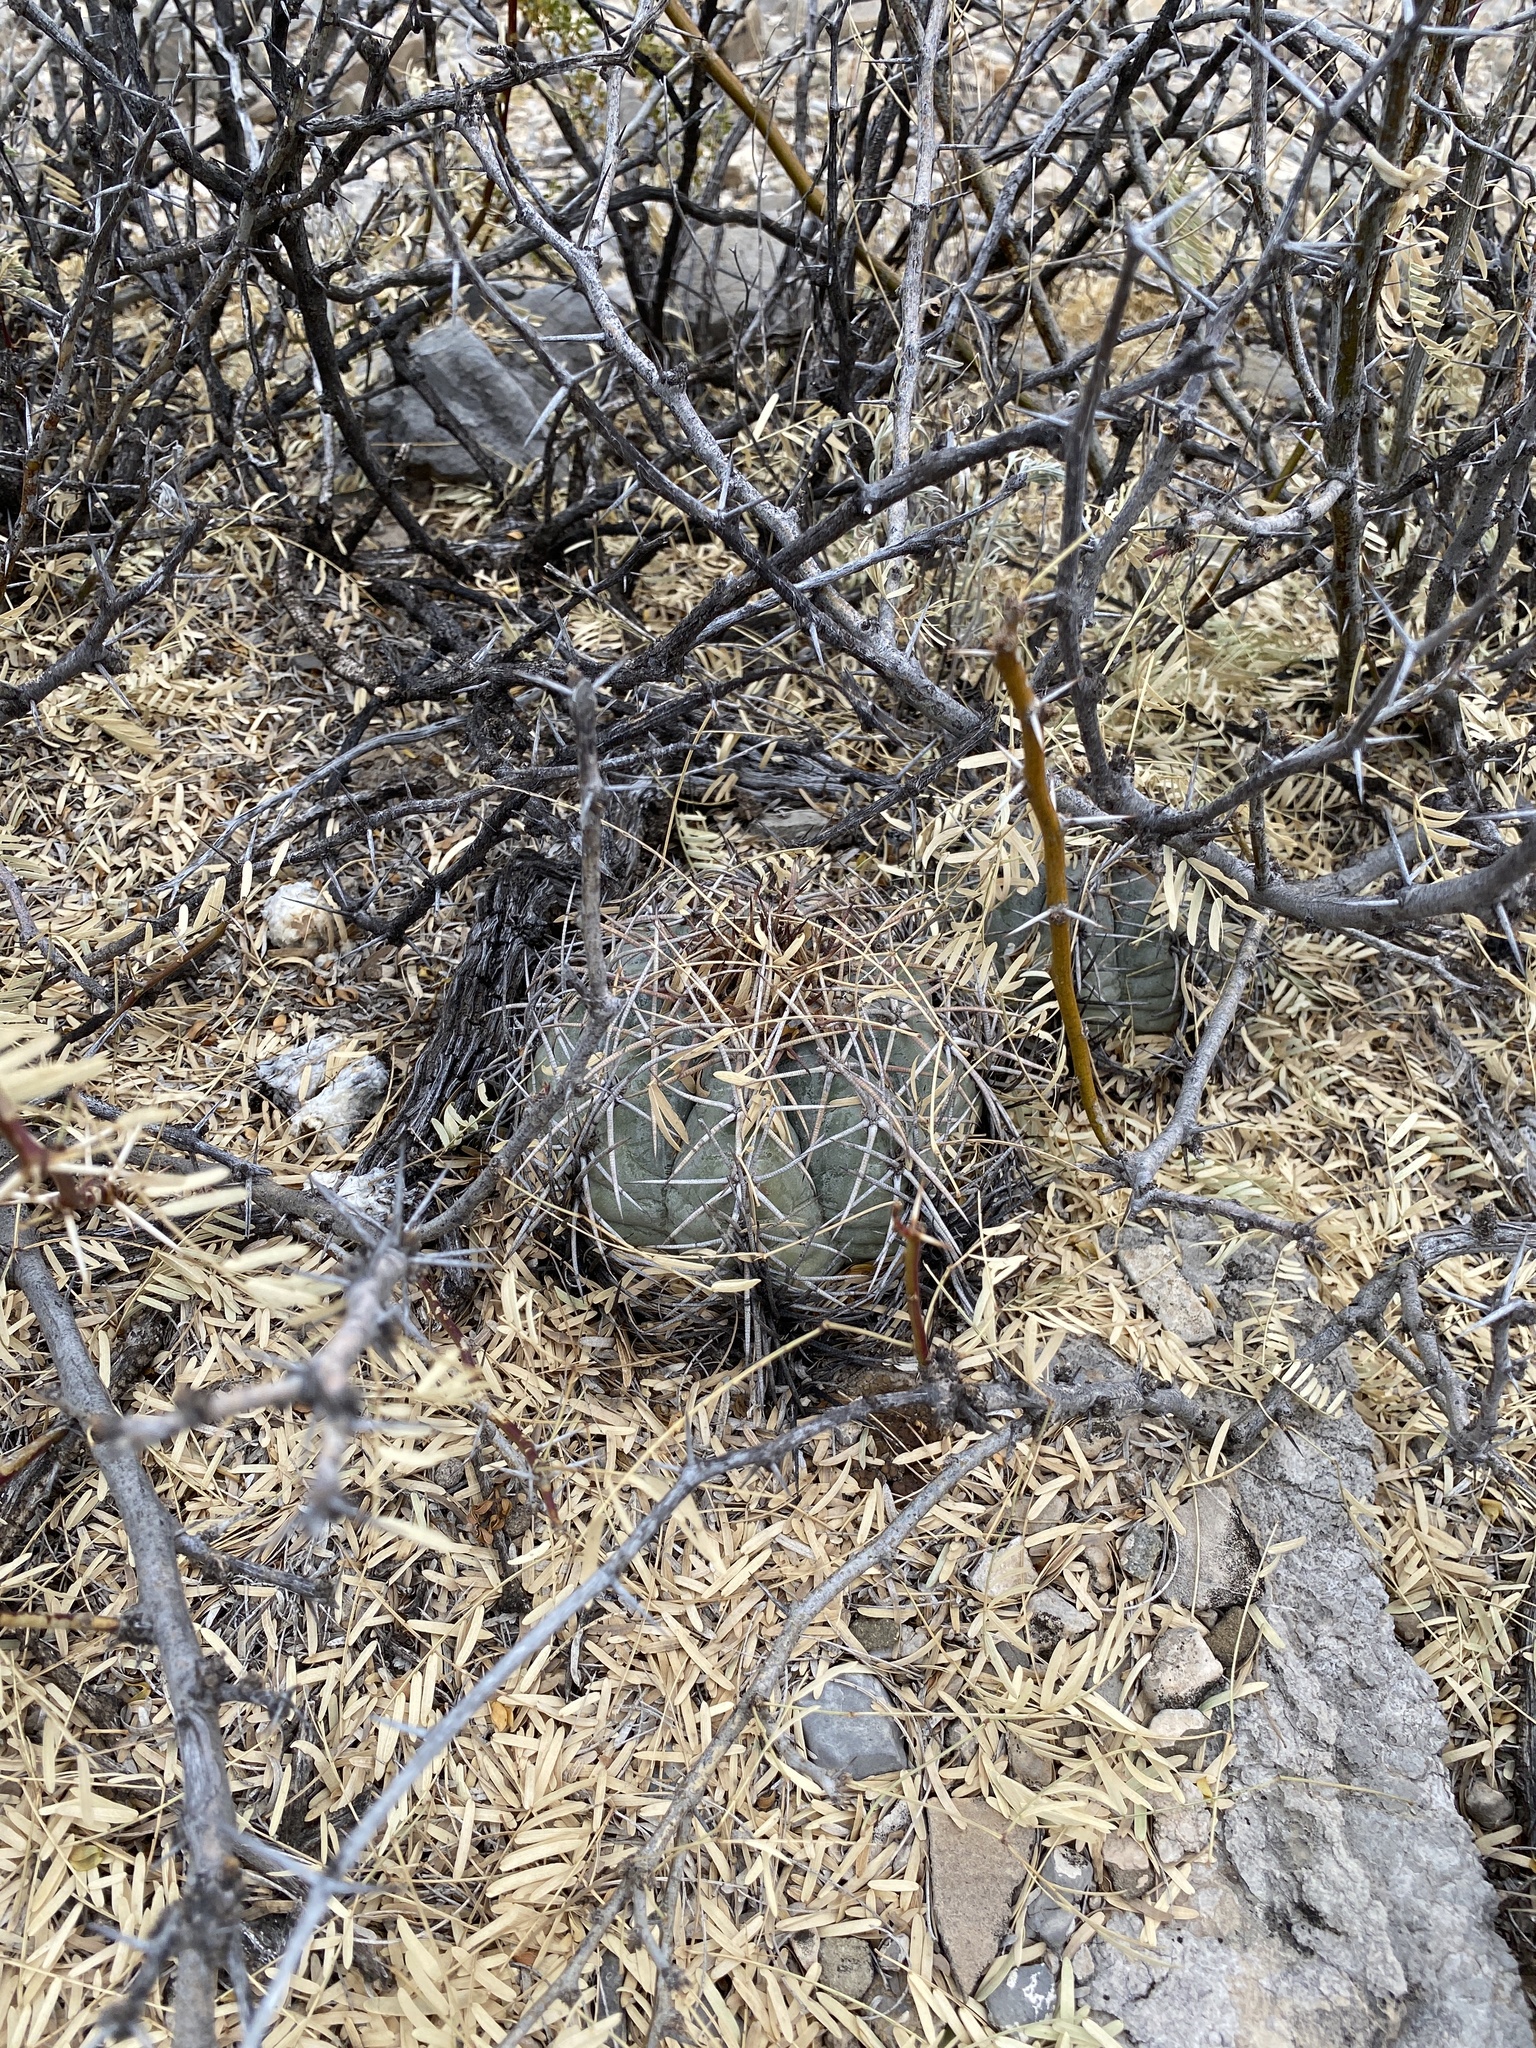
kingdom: Plantae
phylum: Tracheophyta
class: Magnoliopsida
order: Caryophyllales
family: Cactaceae
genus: Echinocactus
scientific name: Echinocactus horizonthalonius
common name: Devilshead
